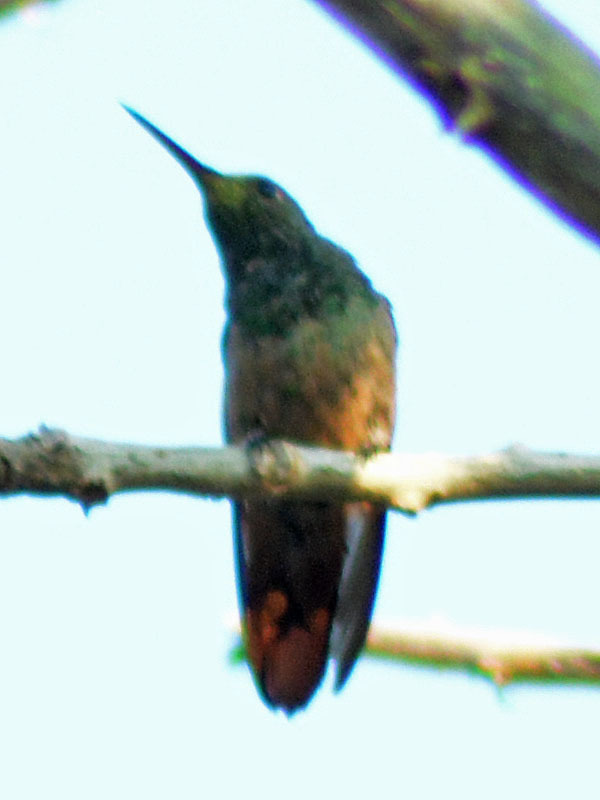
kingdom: Animalia
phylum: Chordata
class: Aves
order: Apodiformes
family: Trochilidae
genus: Saucerottia
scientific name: Saucerottia beryllina
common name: Berylline hummingbird
